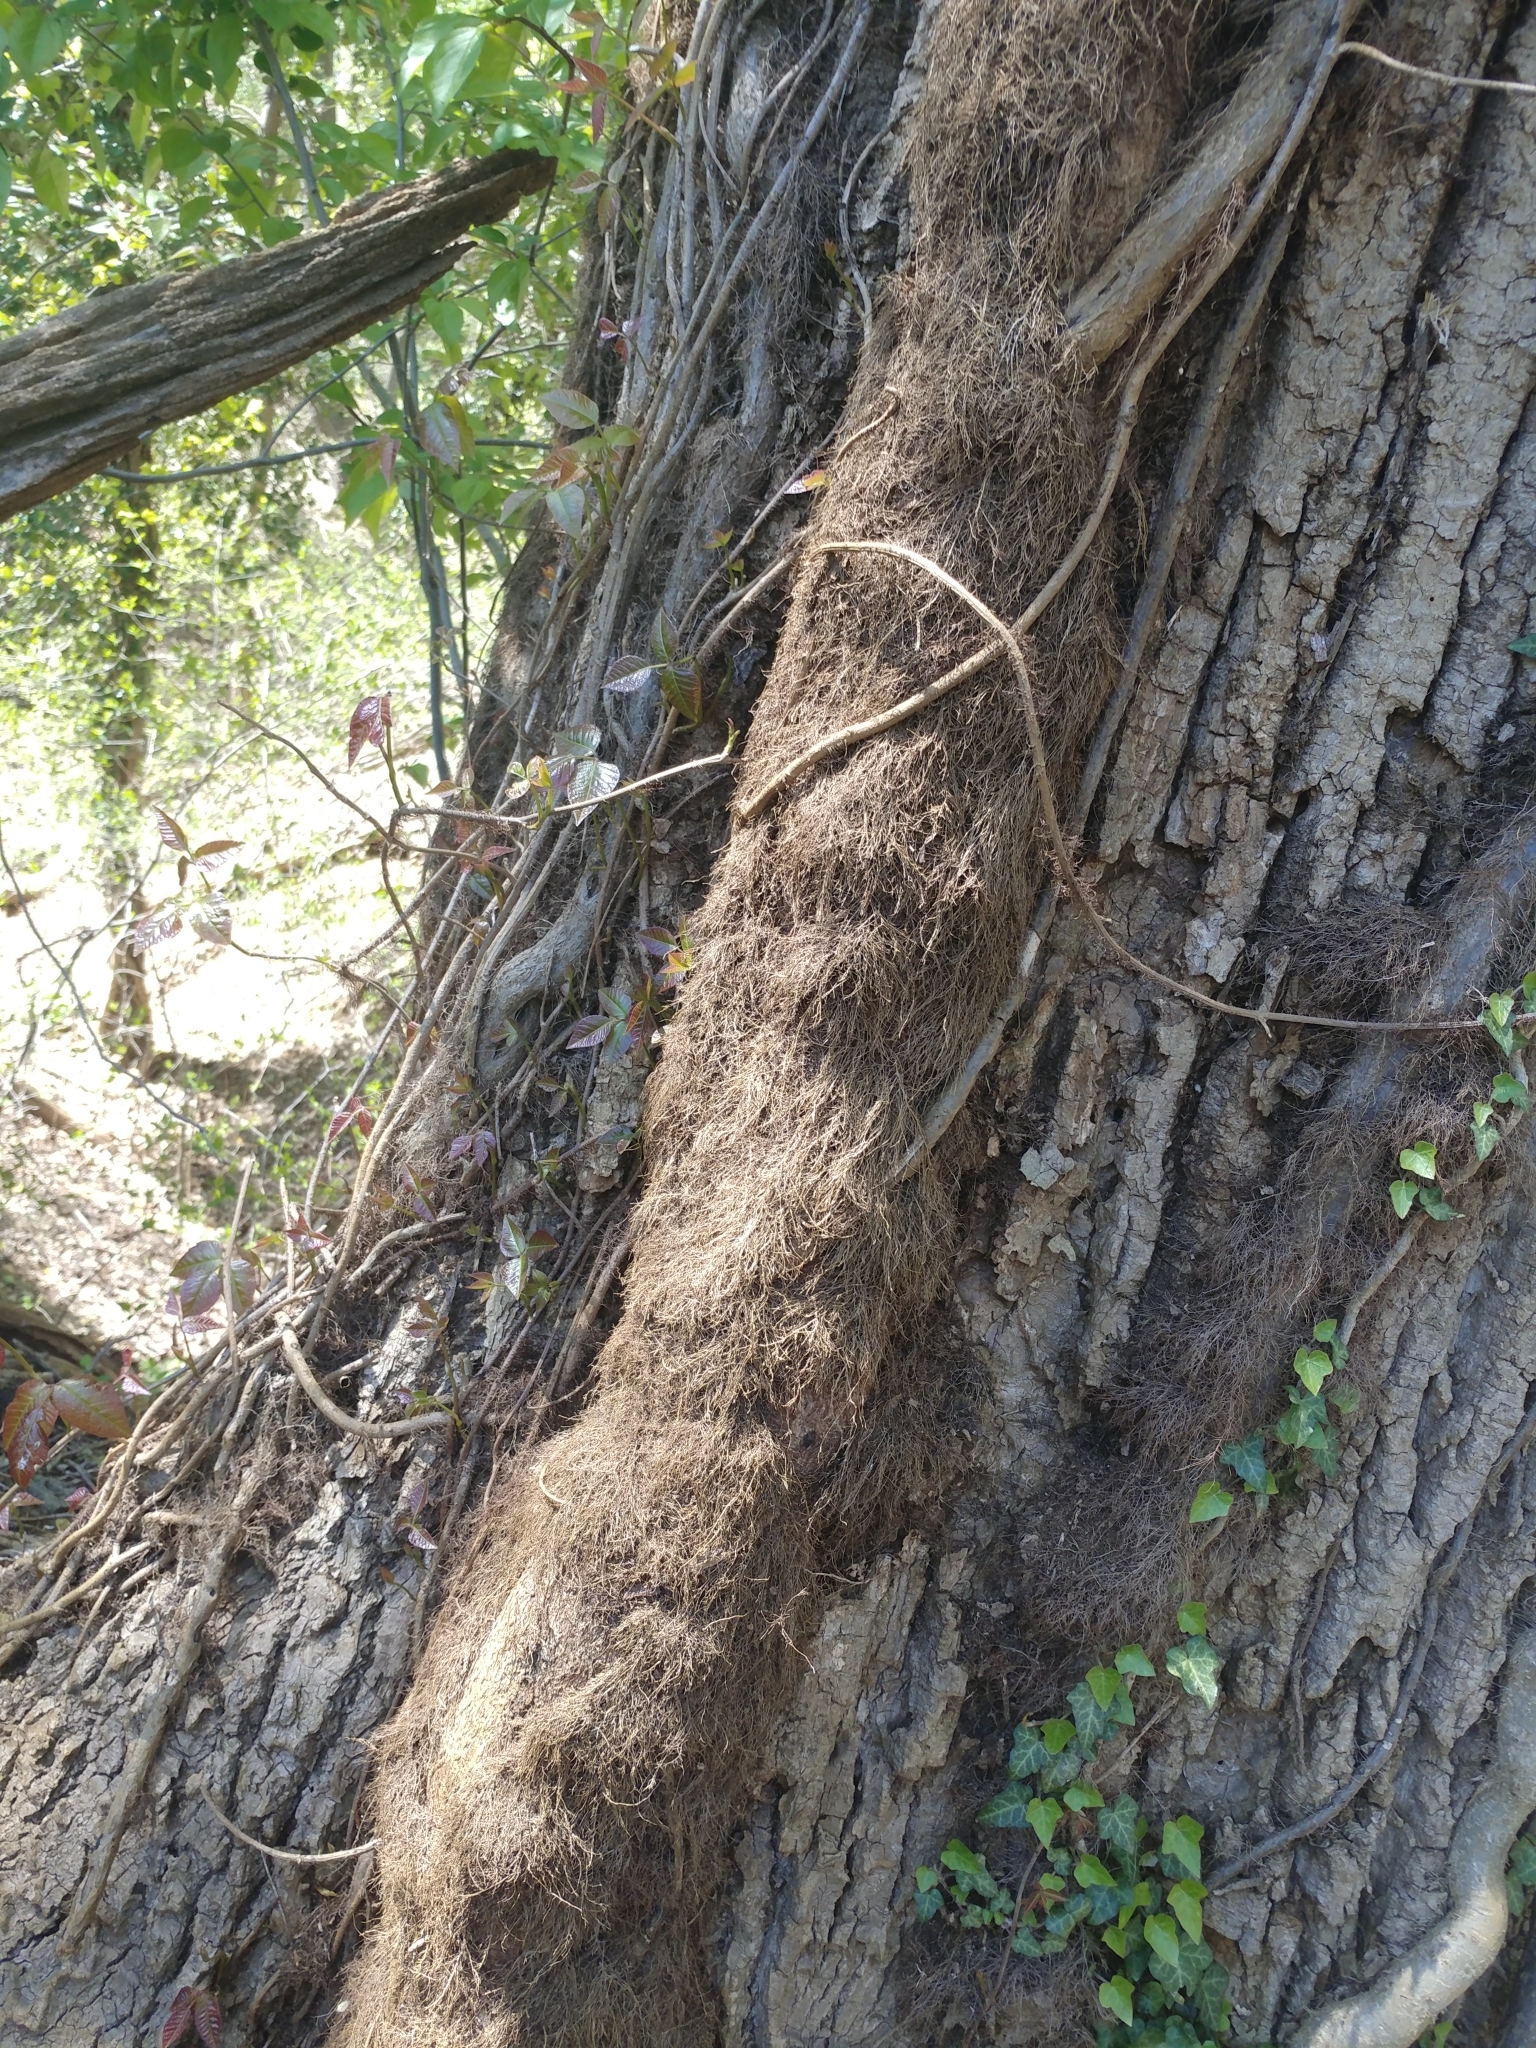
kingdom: Plantae
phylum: Tracheophyta
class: Magnoliopsida
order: Sapindales
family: Anacardiaceae
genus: Toxicodendron
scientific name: Toxicodendron radicans
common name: Poison ivy
